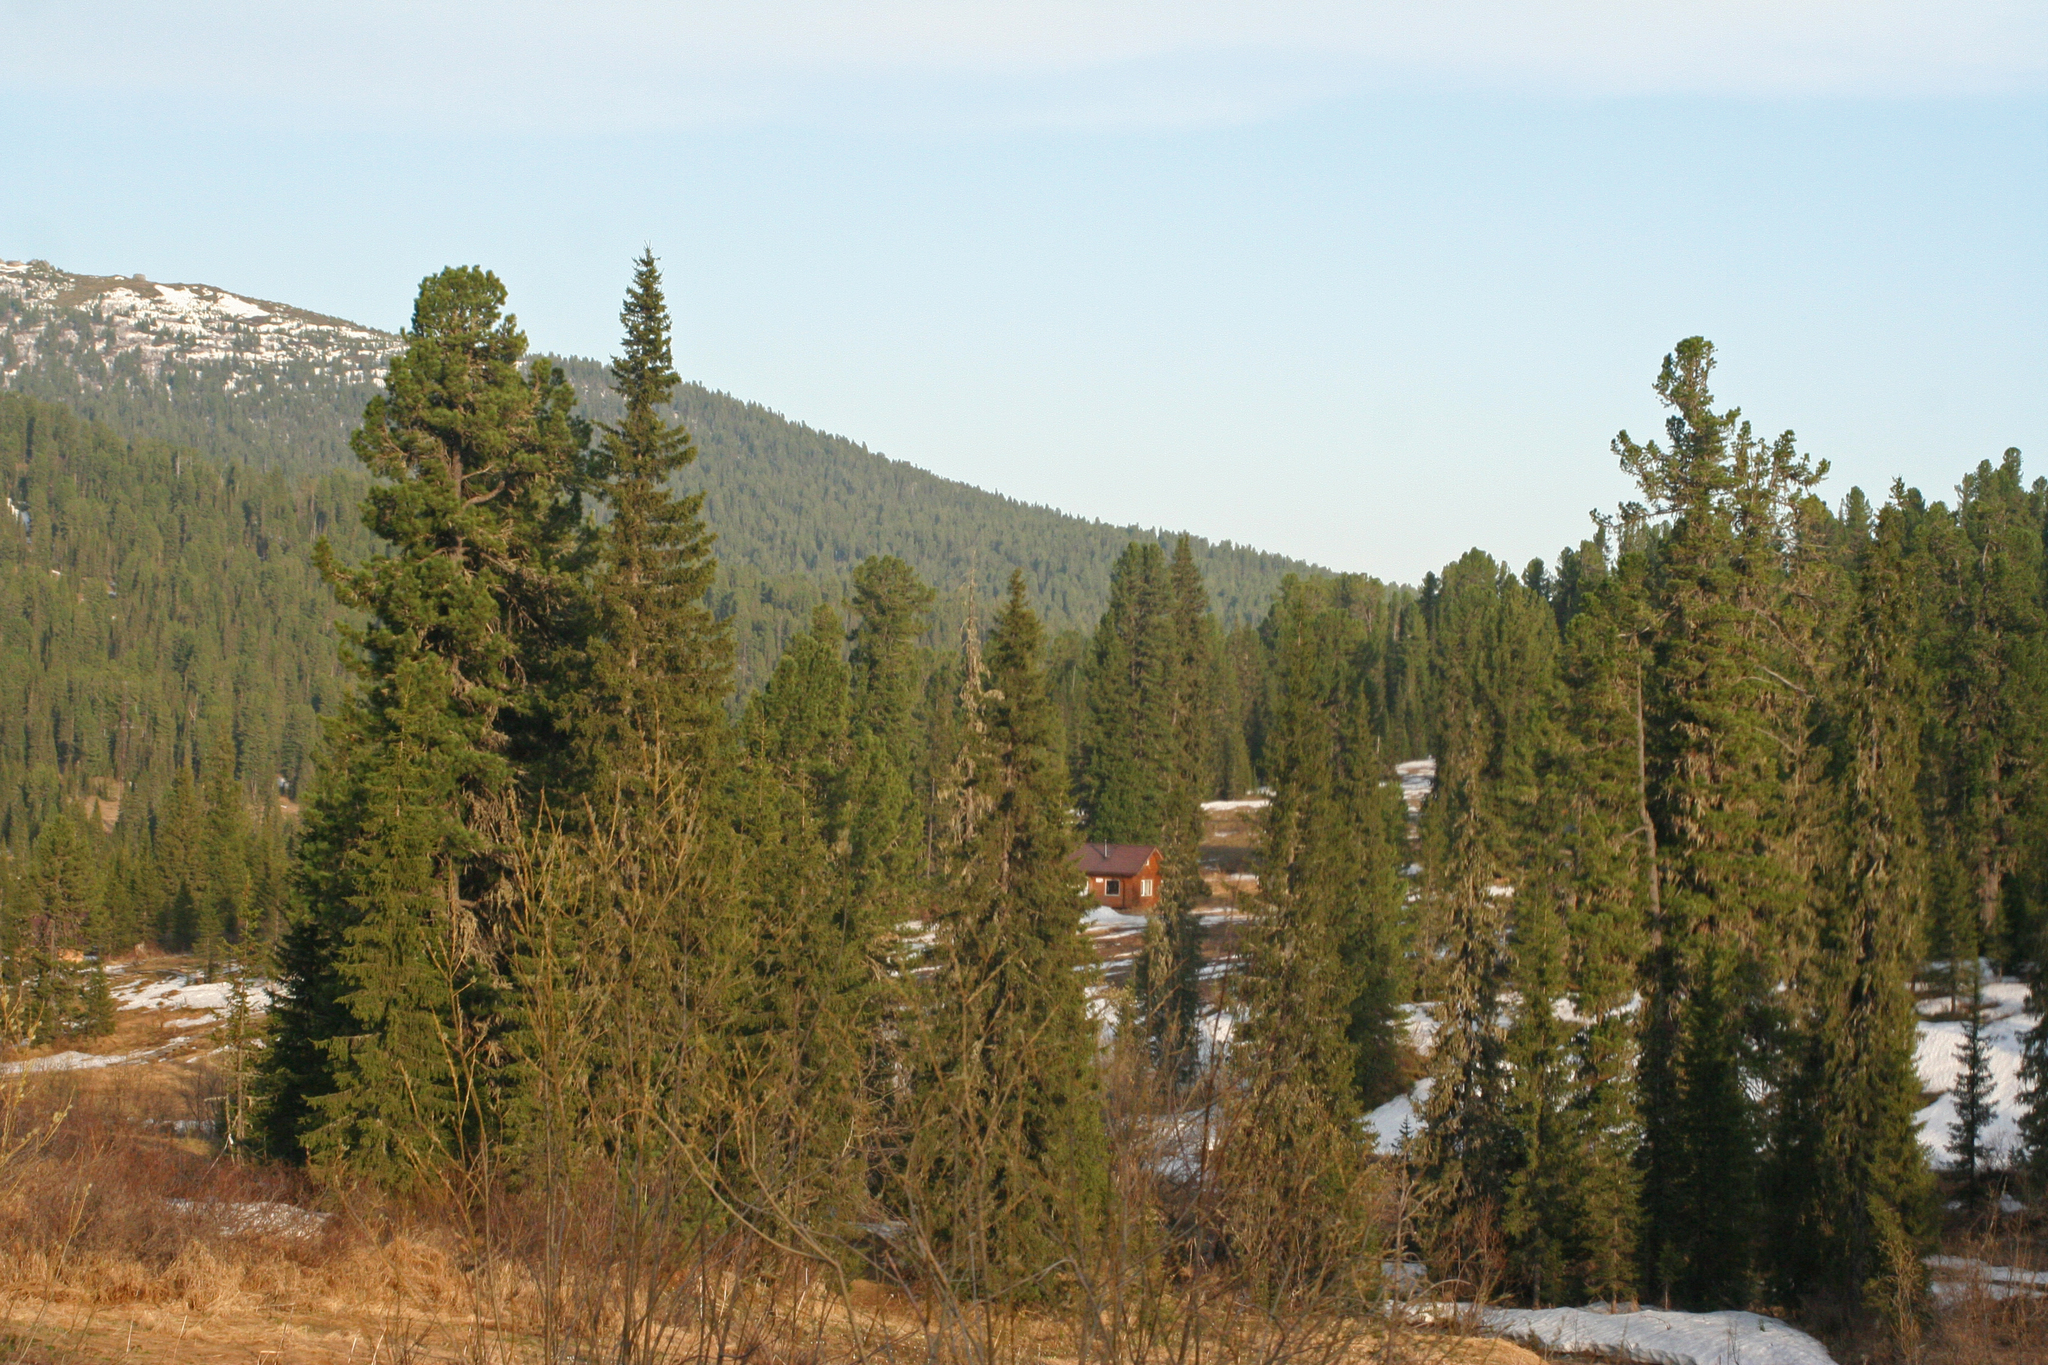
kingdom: Plantae
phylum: Tracheophyta
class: Pinopsida
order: Pinales
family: Pinaceae
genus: Pinus
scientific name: Pinus sibirica
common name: Siberian pine
